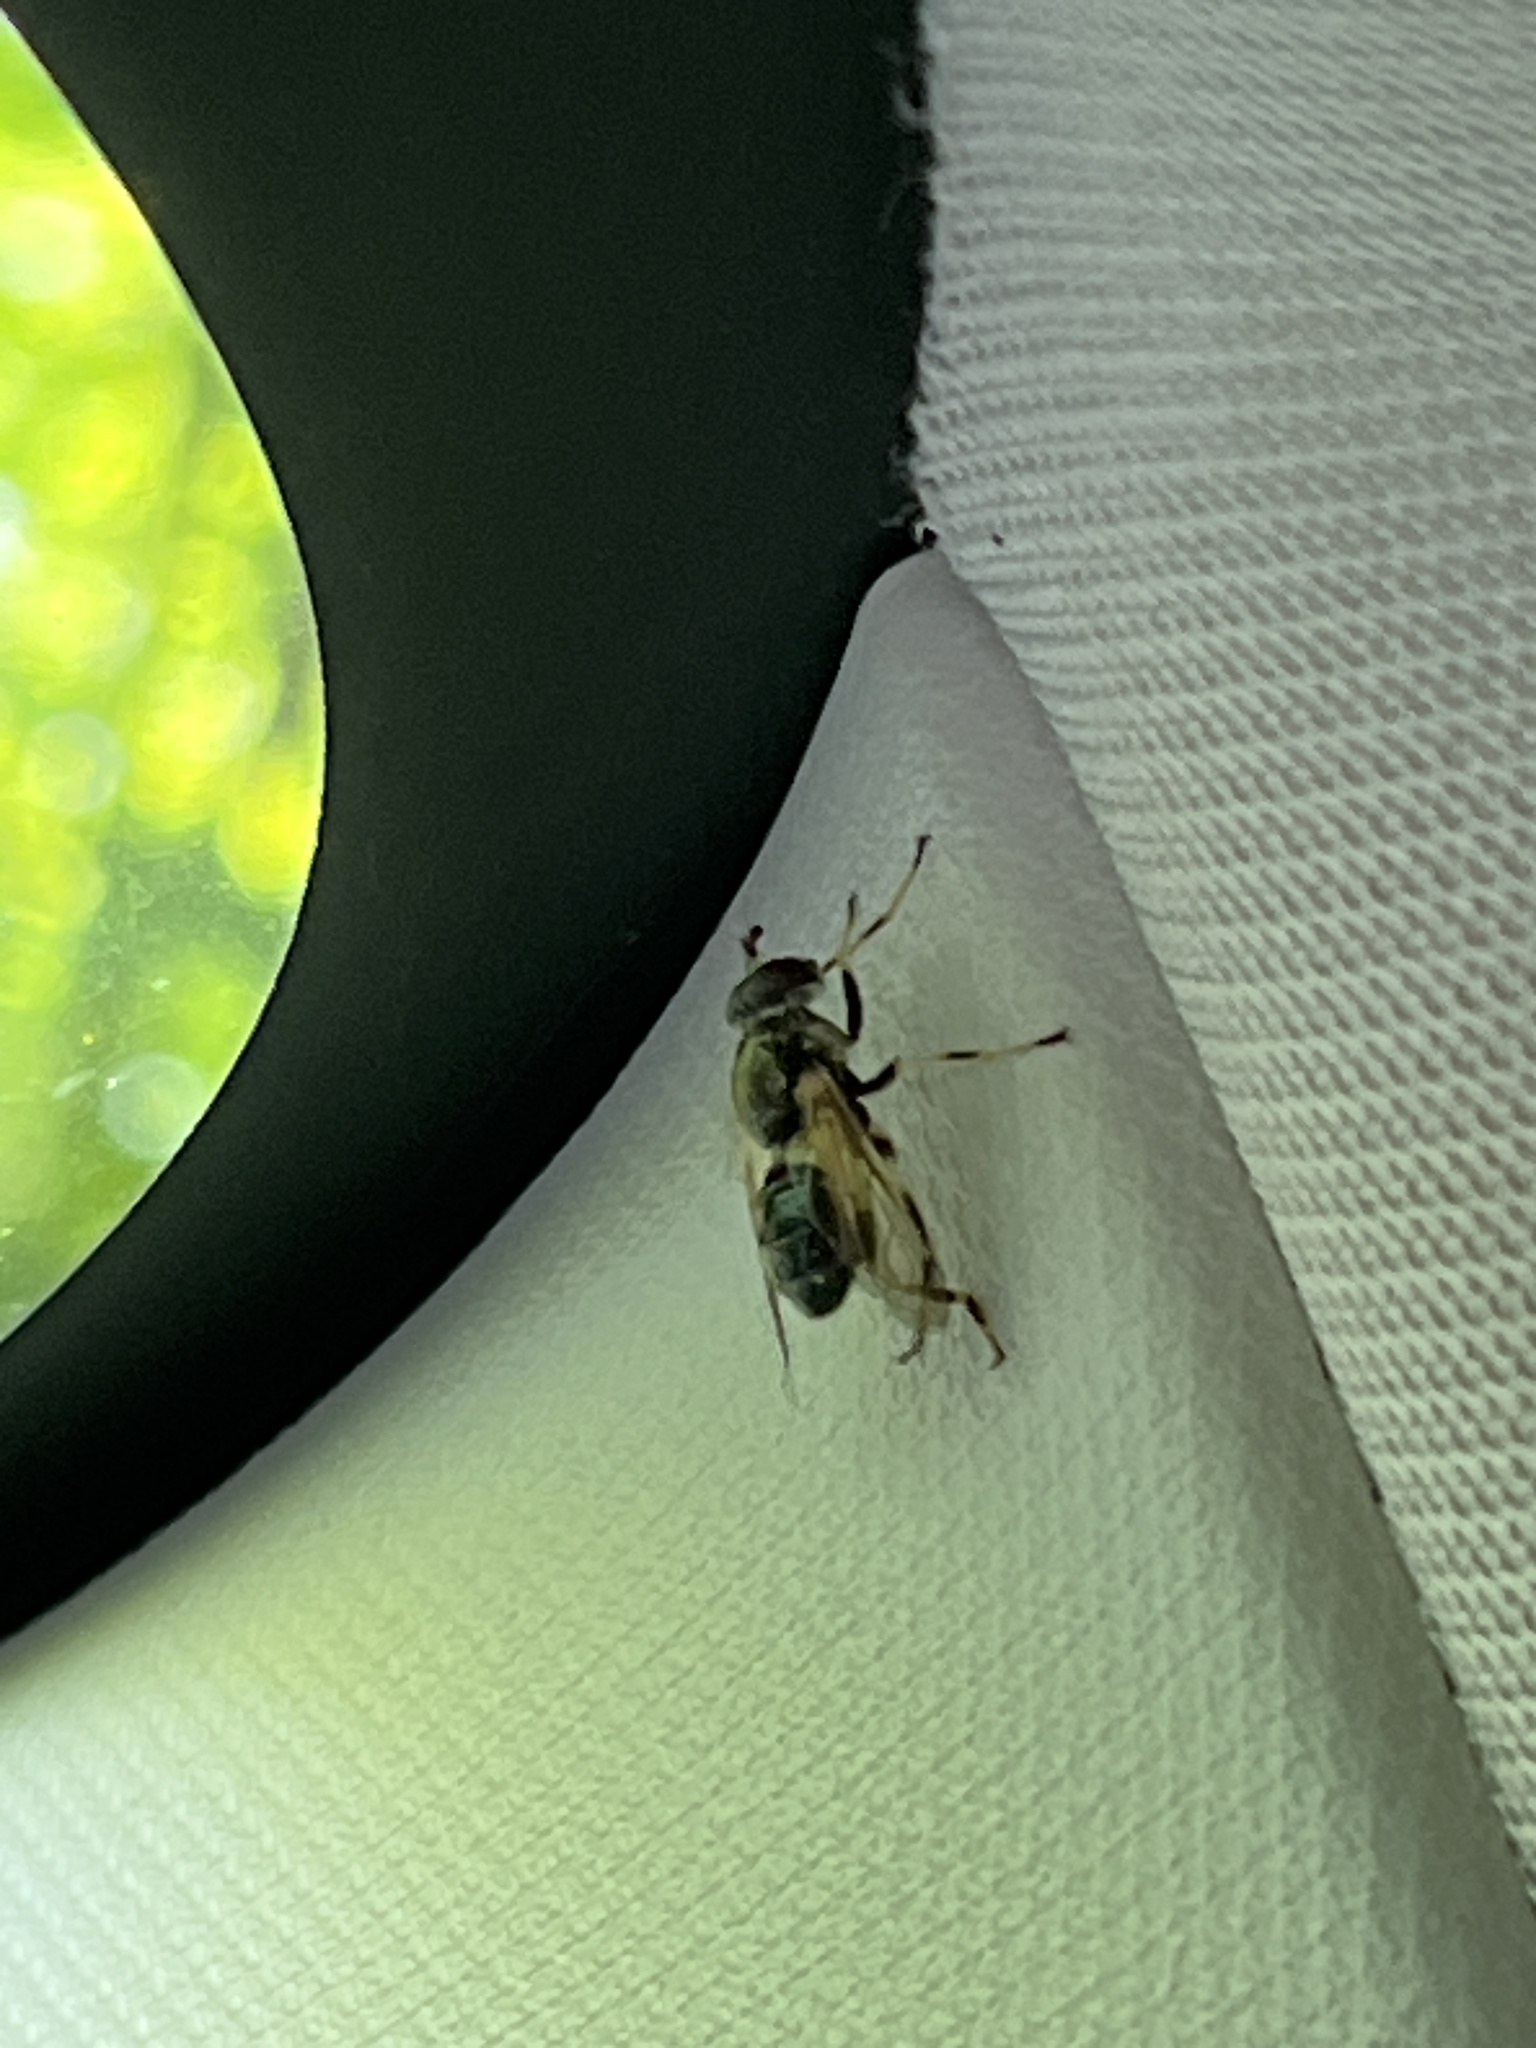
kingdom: Animalia
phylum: Arthropoda
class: Insecta
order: Diptera
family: Syrphidae
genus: Blera
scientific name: Blera badia
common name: Common wood fly
